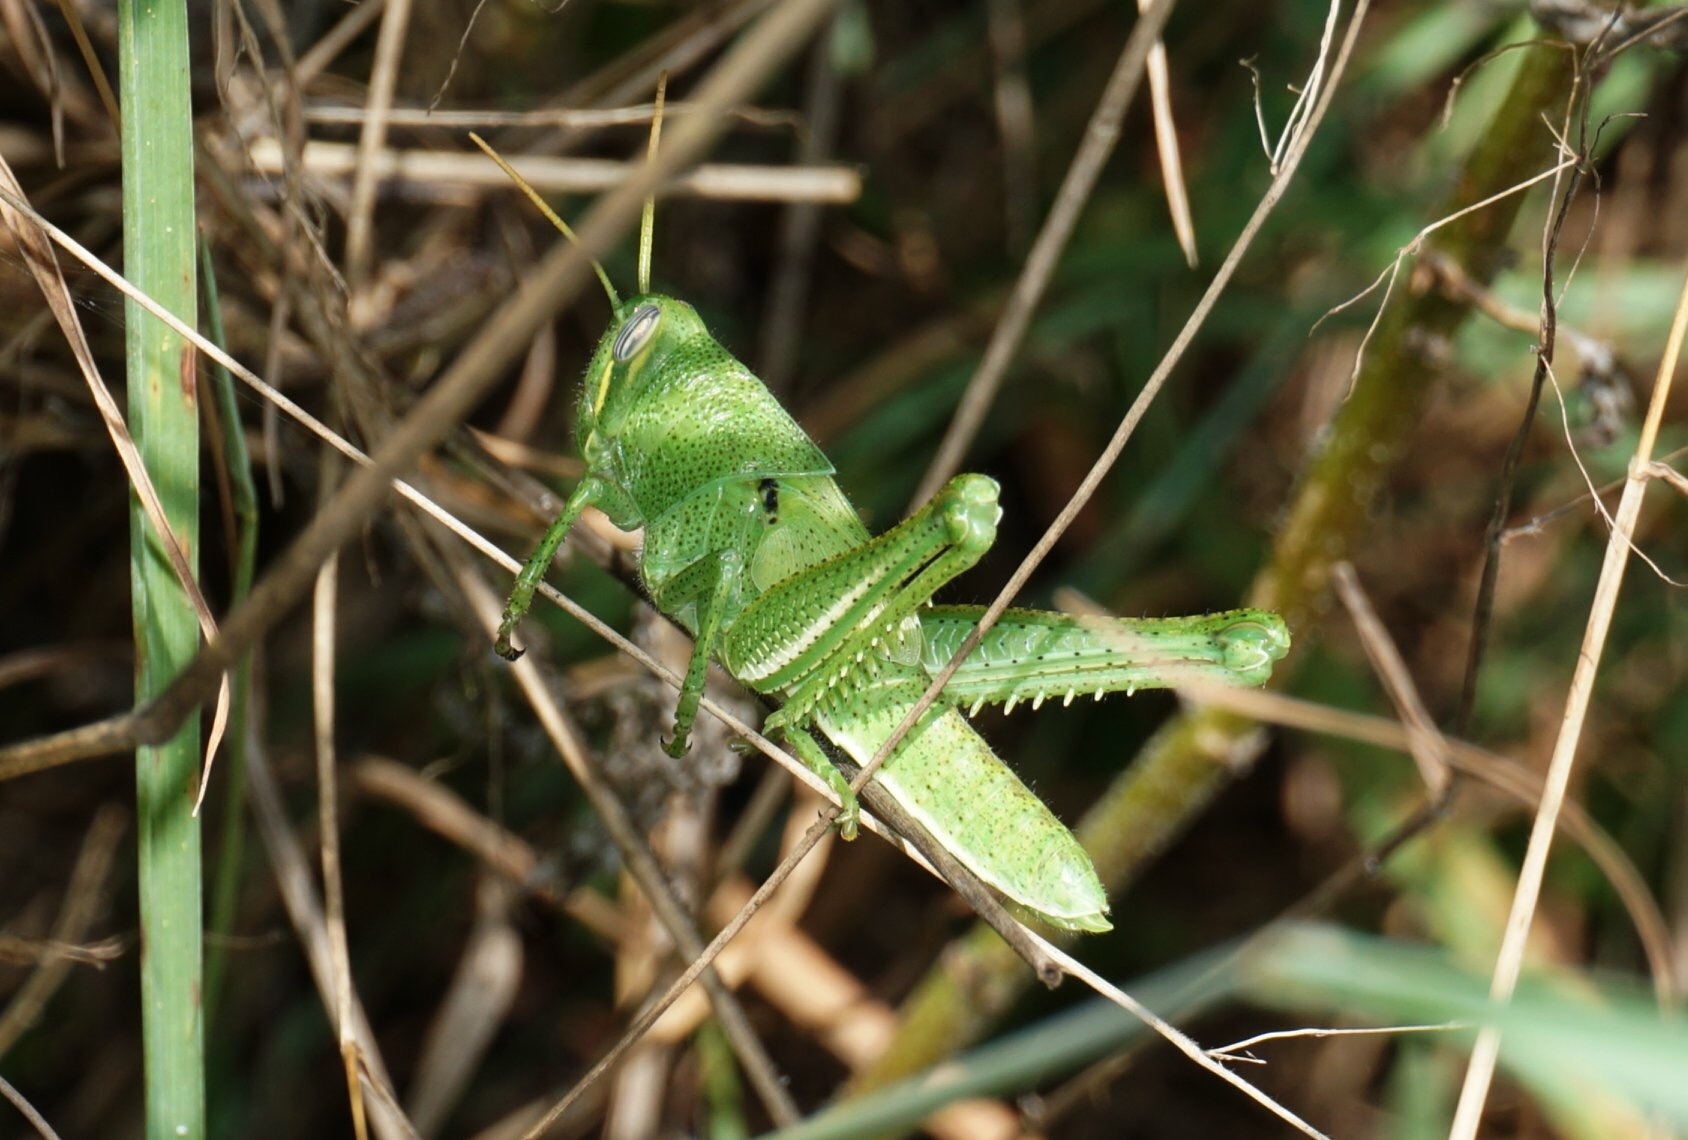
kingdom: Animalia
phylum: Arthropoda
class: Insecta
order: Orthoptera
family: Acrididae
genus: Schistocerca
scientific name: Schistocerca americana
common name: American bird locust
